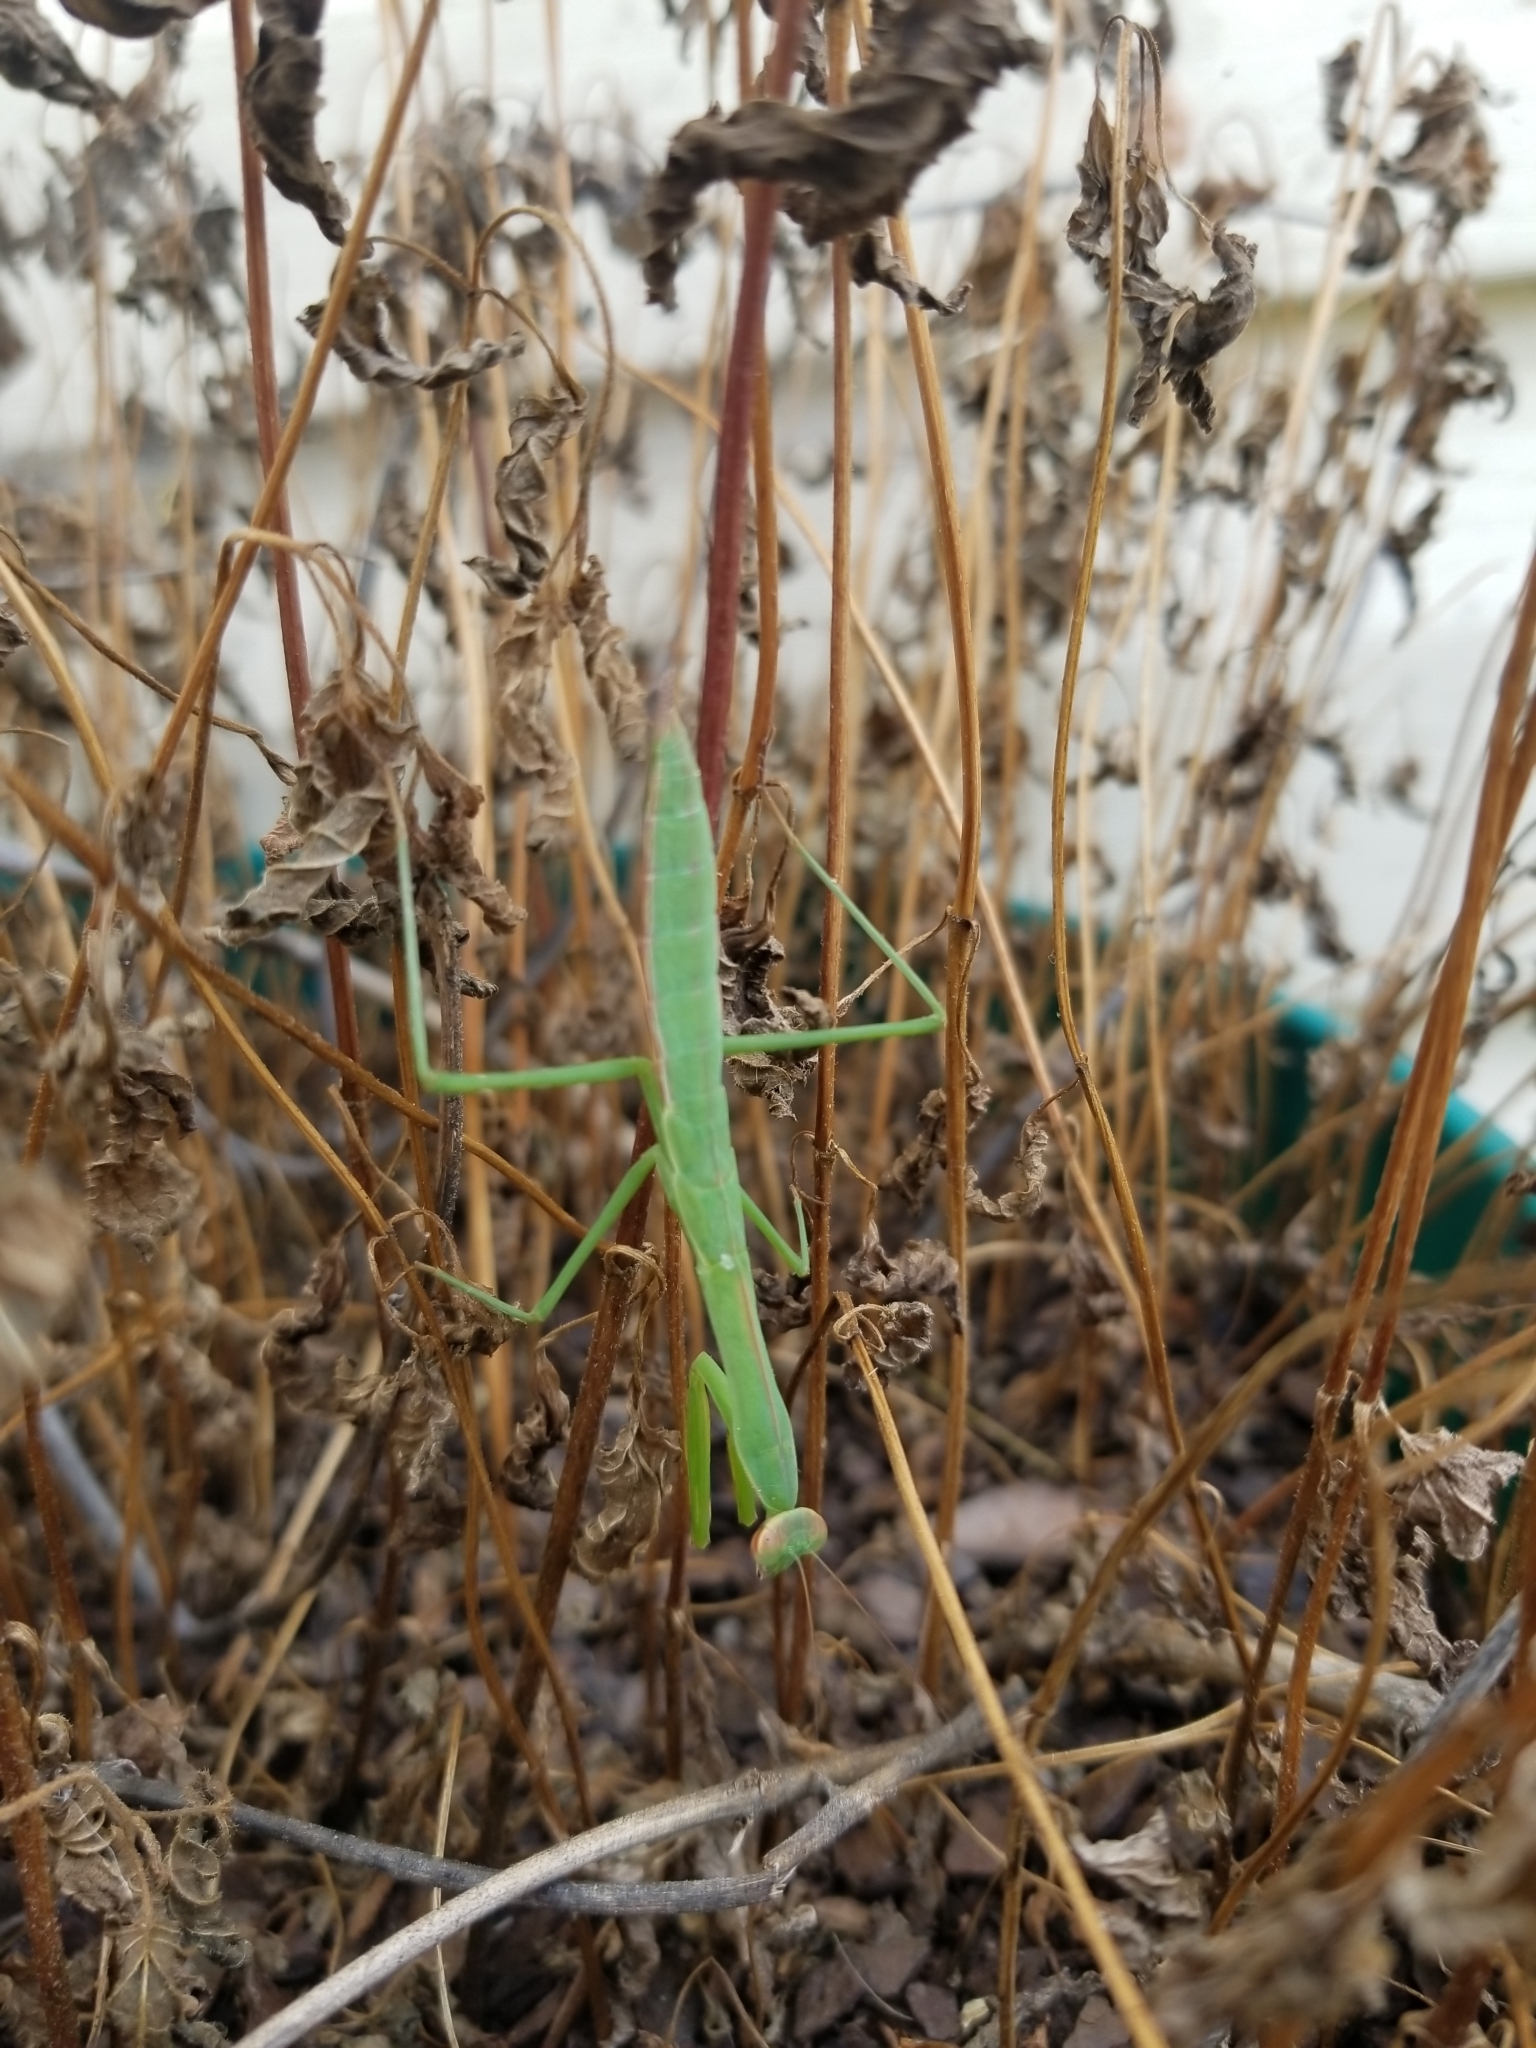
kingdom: Animalia
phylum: Arthropoda
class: Insecta
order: Mantodea
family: Mantidae
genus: Tenodera
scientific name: Tenodera sinensis
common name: Chinese mantis
